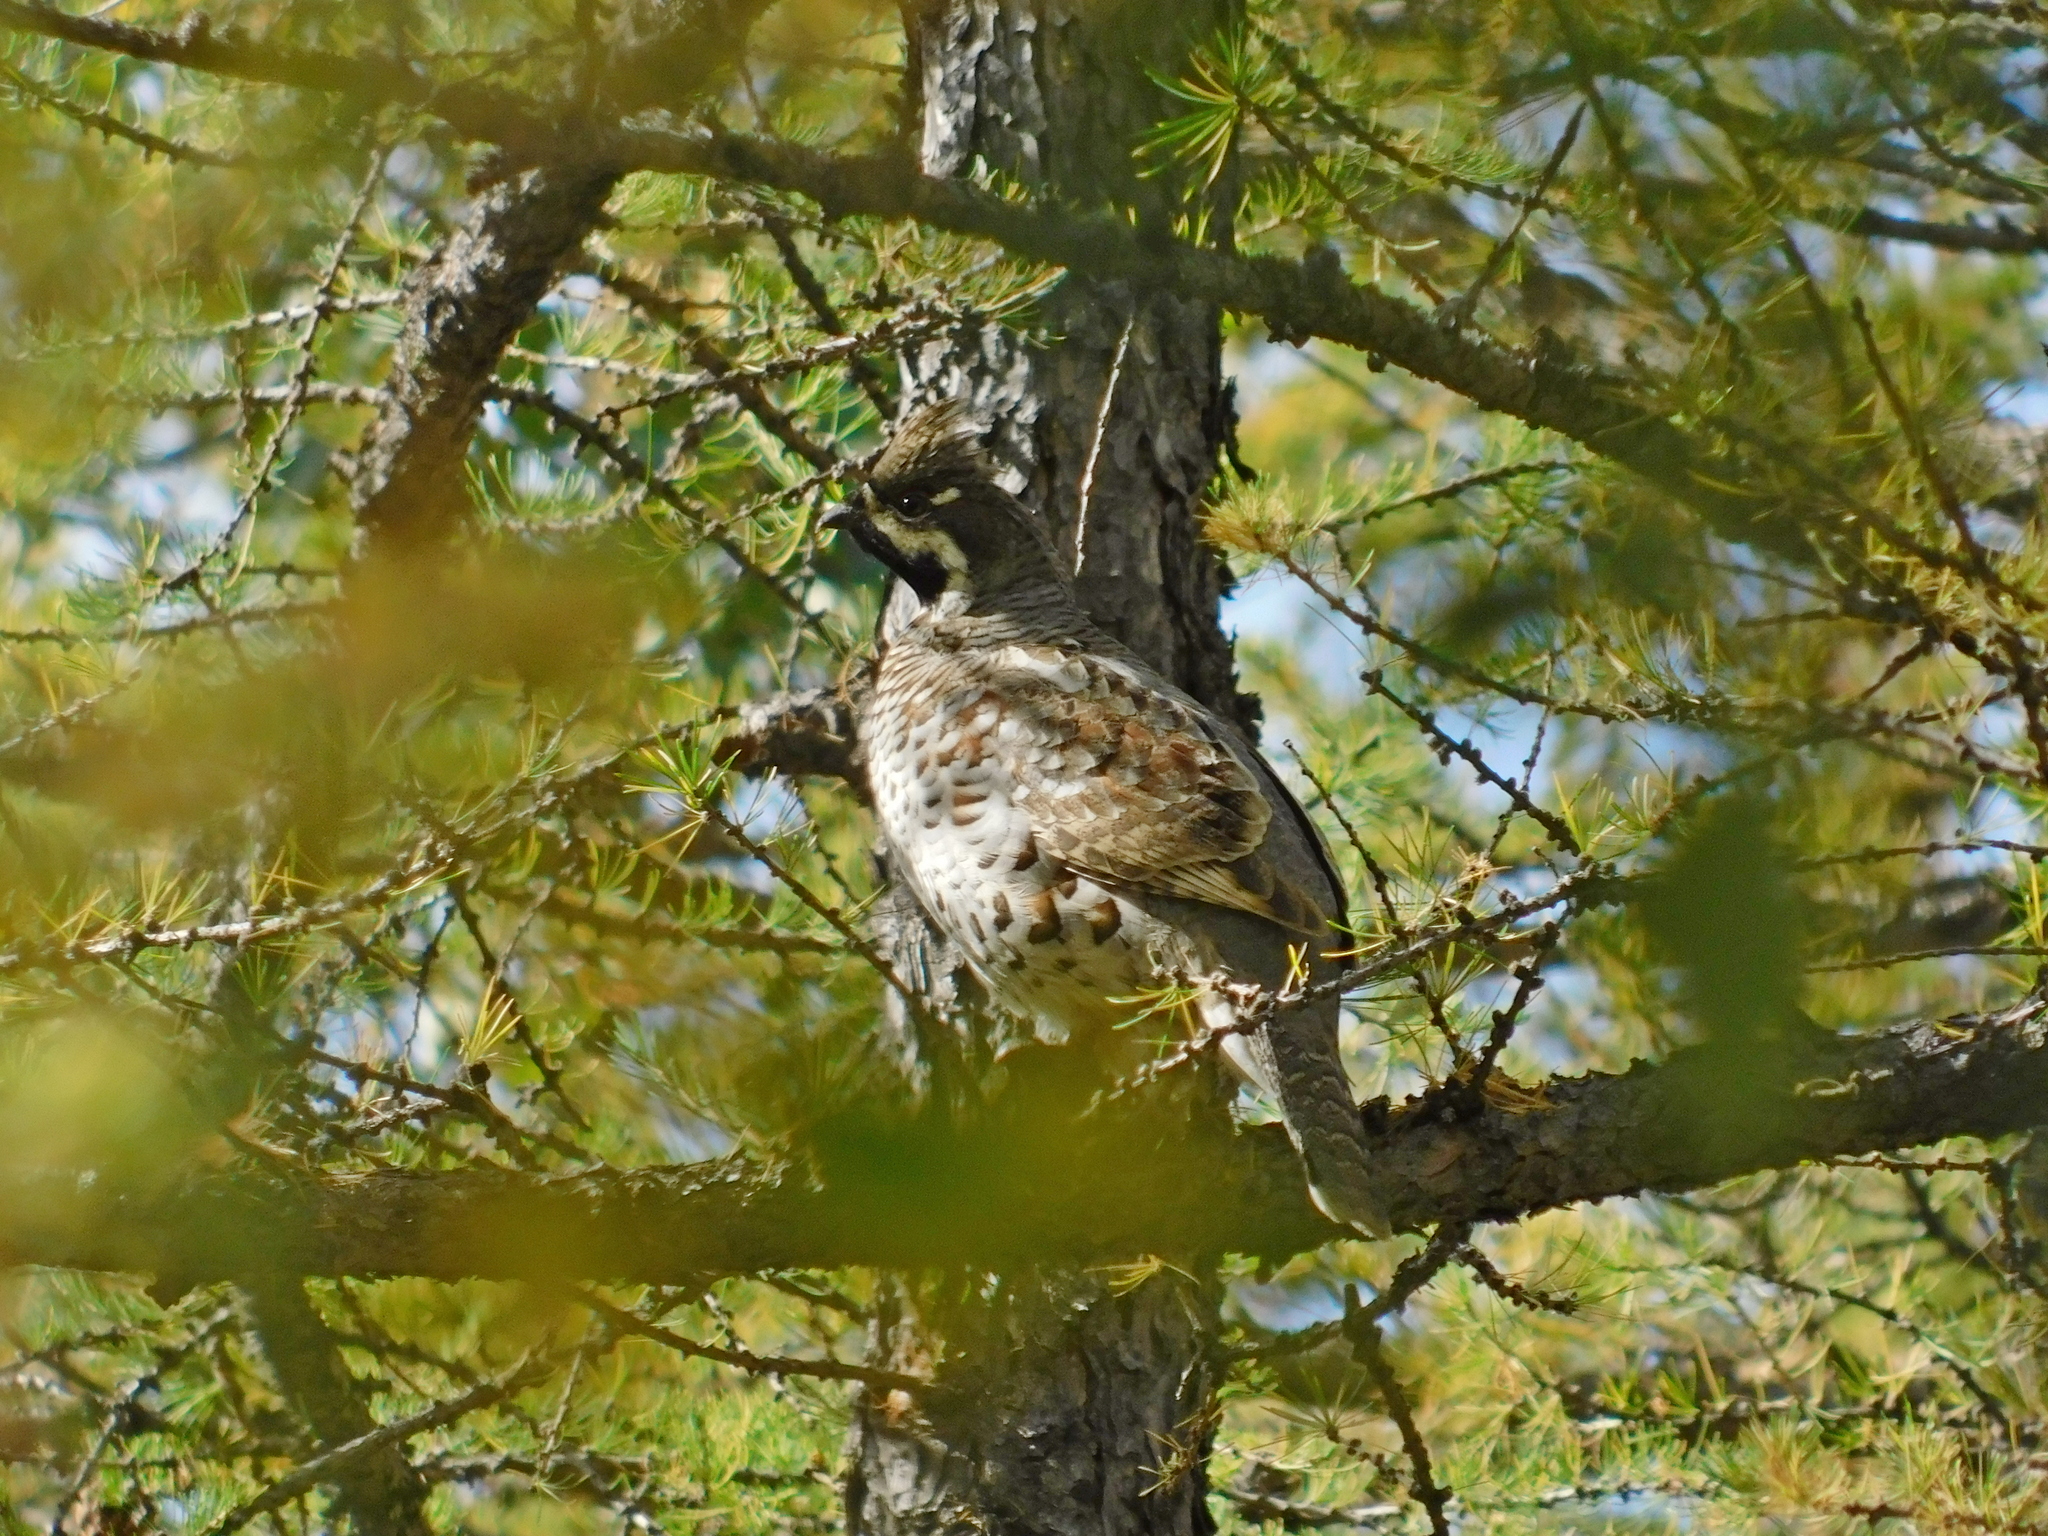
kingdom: Animalia
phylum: Chordata
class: Aves
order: Galliformes
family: Phasianidae
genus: Tetrastes
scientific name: Tetrastes bonasia
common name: Hazel grouse
